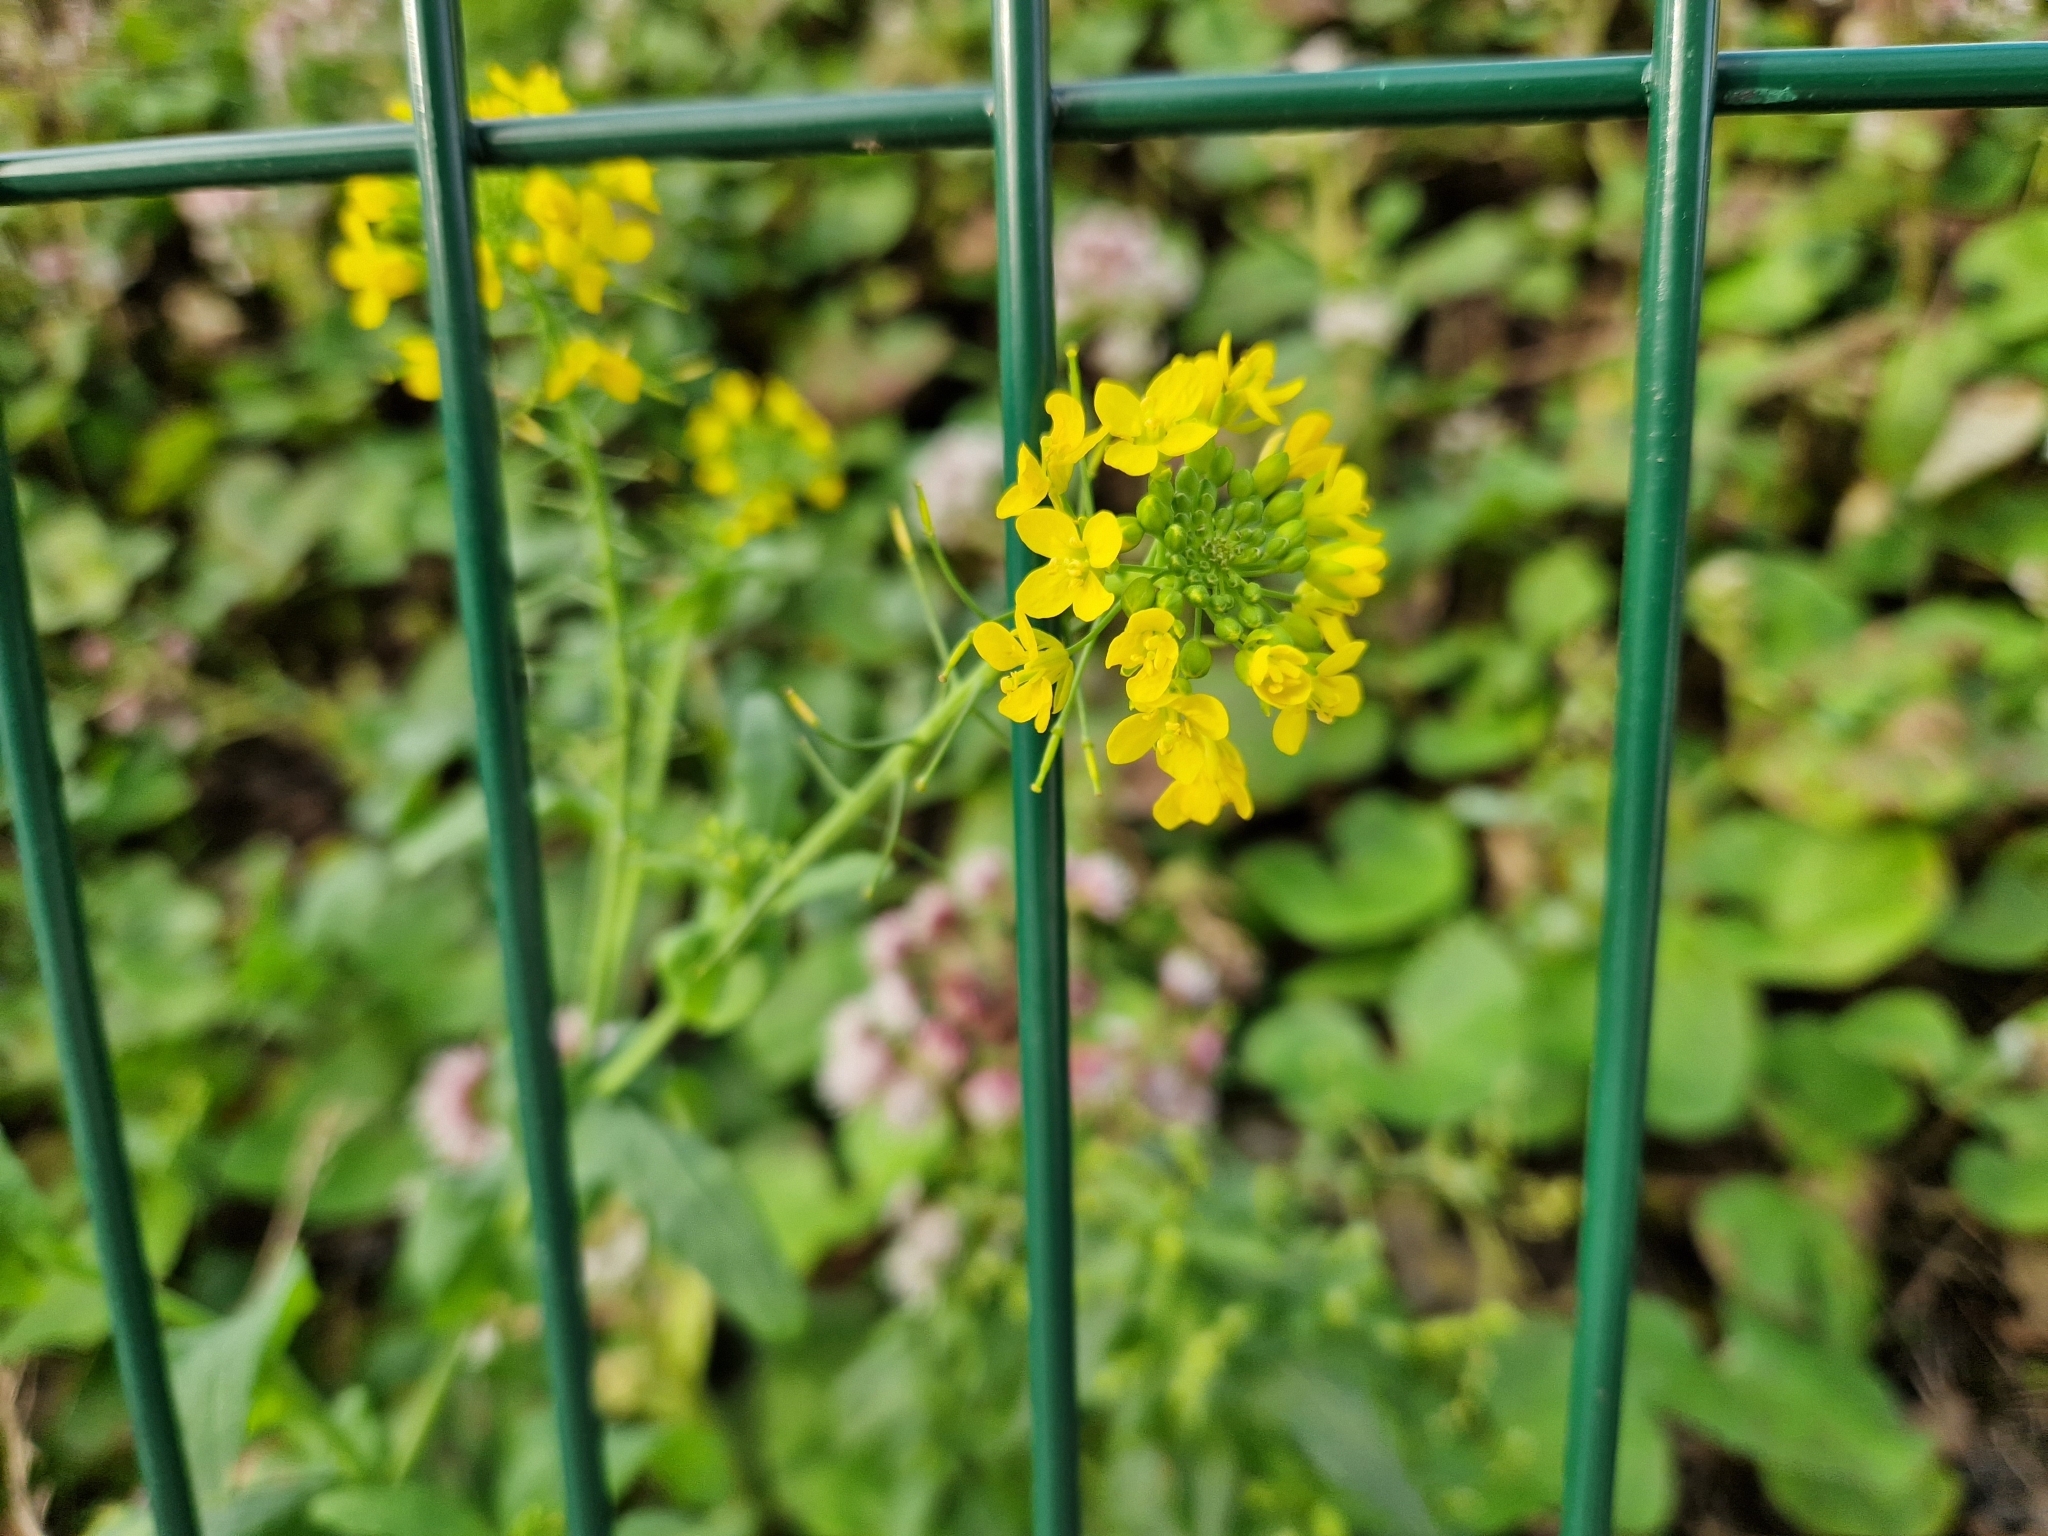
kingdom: Plantae
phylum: Tracheophyta
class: Magnoliopsida
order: Brassicales
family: Brassicaceae
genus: Brassica
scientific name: Brassica rapa
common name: Field mustard
